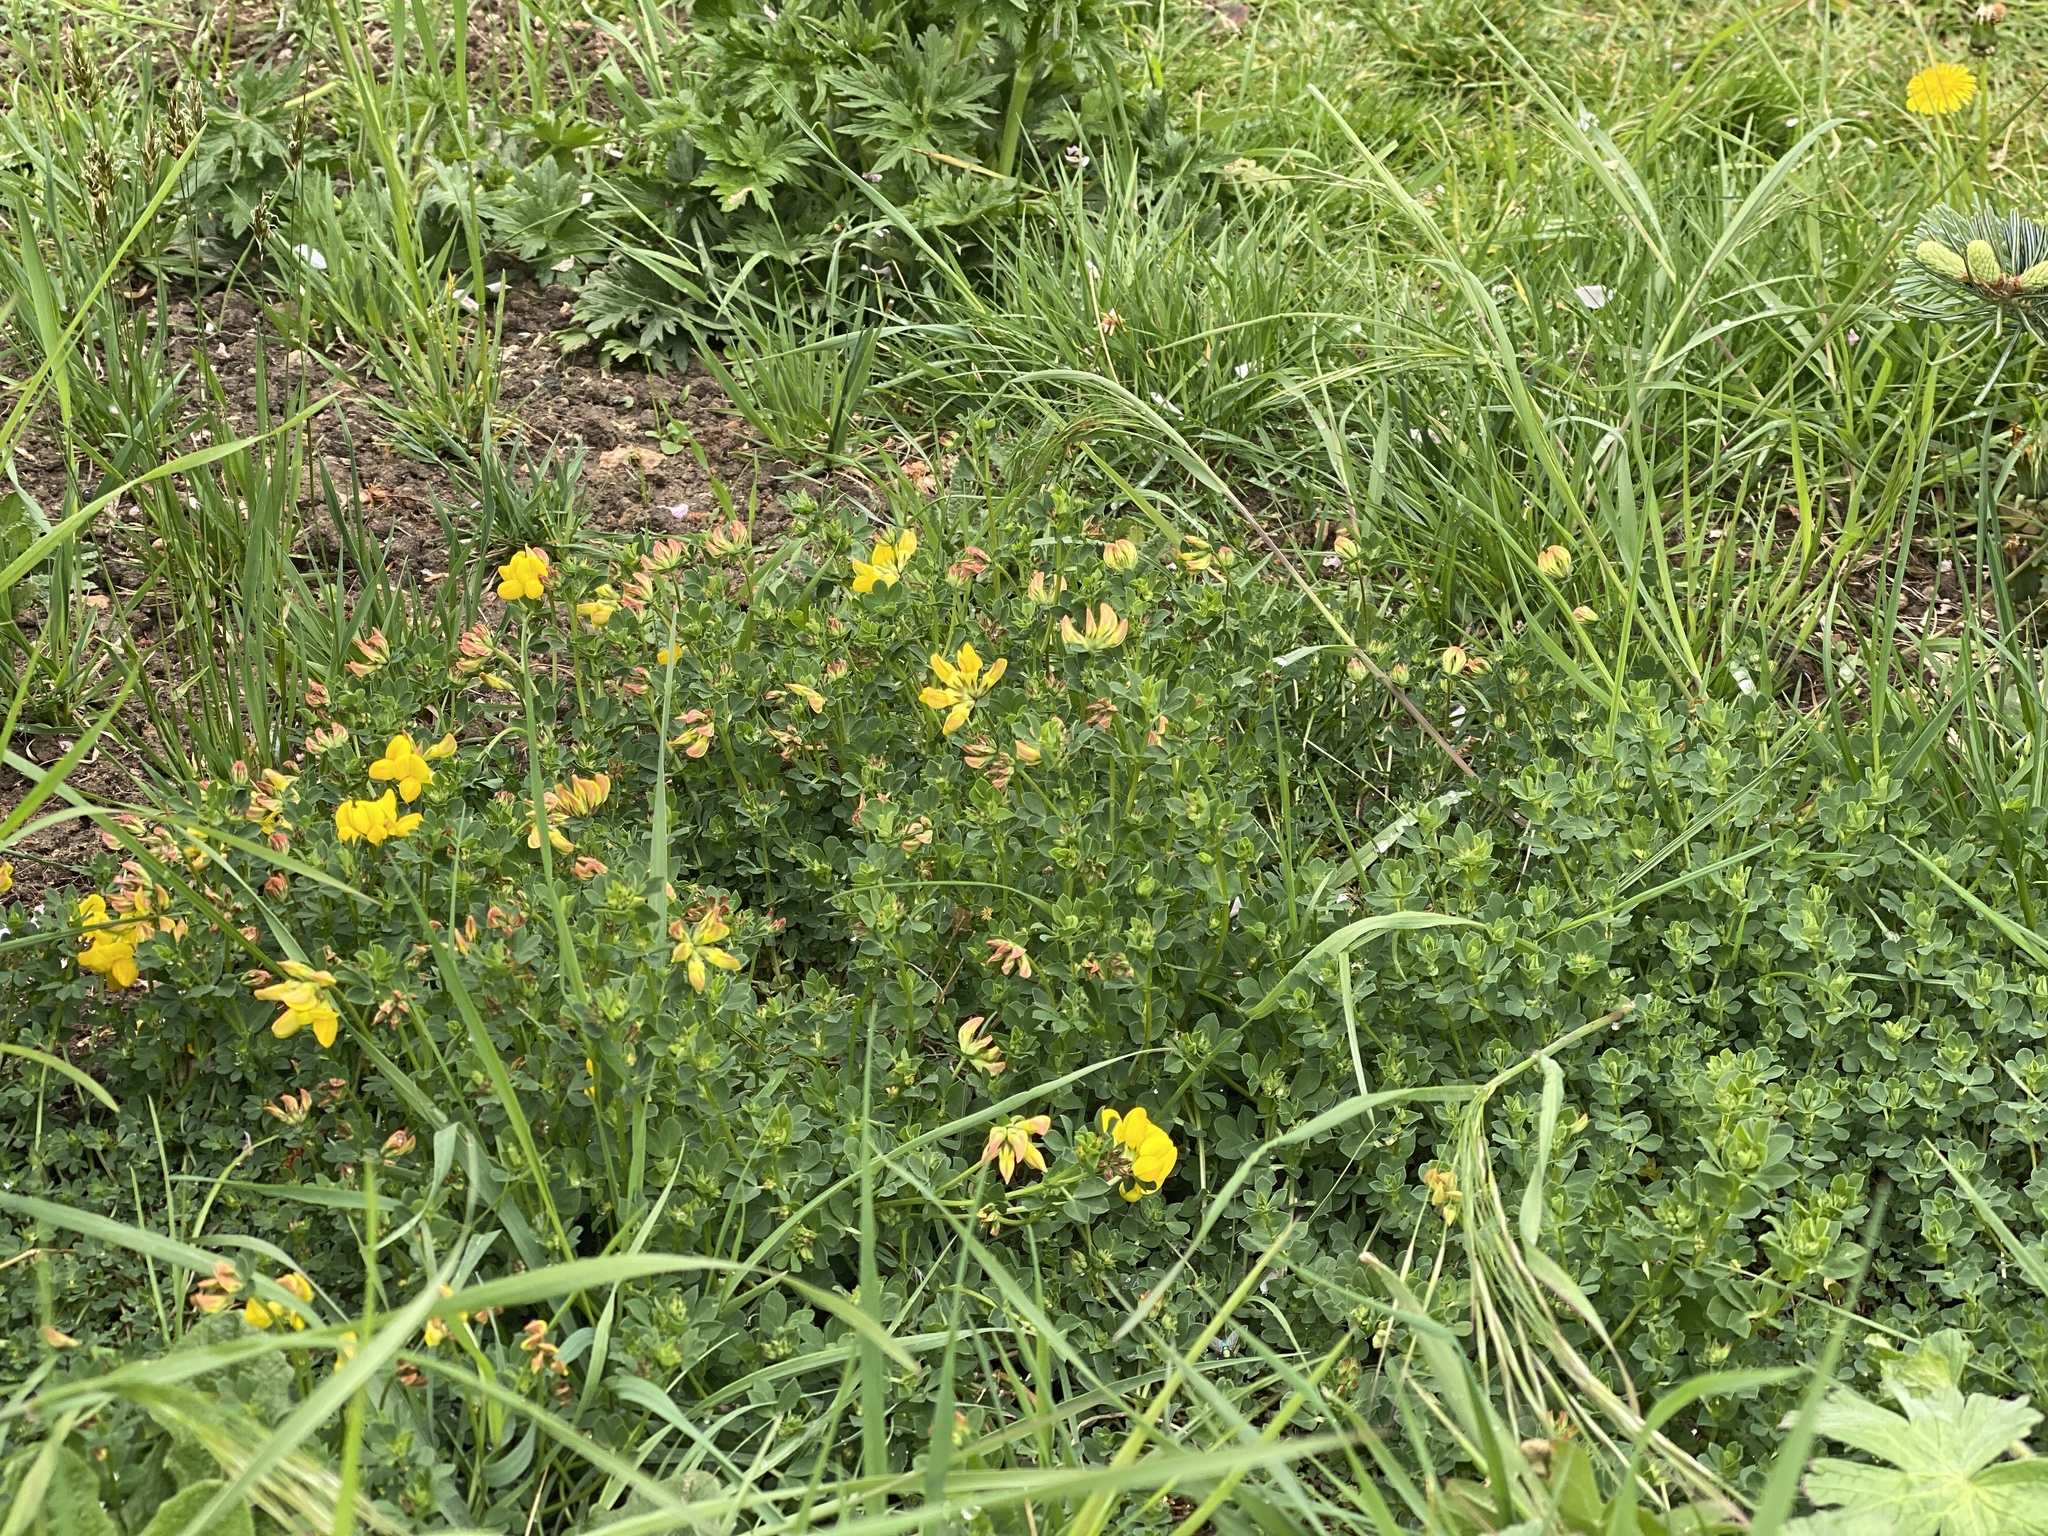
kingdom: Plantae
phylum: Tracheophyta
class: Magnoliopsida
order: Fabales
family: Fabaceae
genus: Lotus
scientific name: Lotus corniculatus
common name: Common bird's-foot-trefoil
